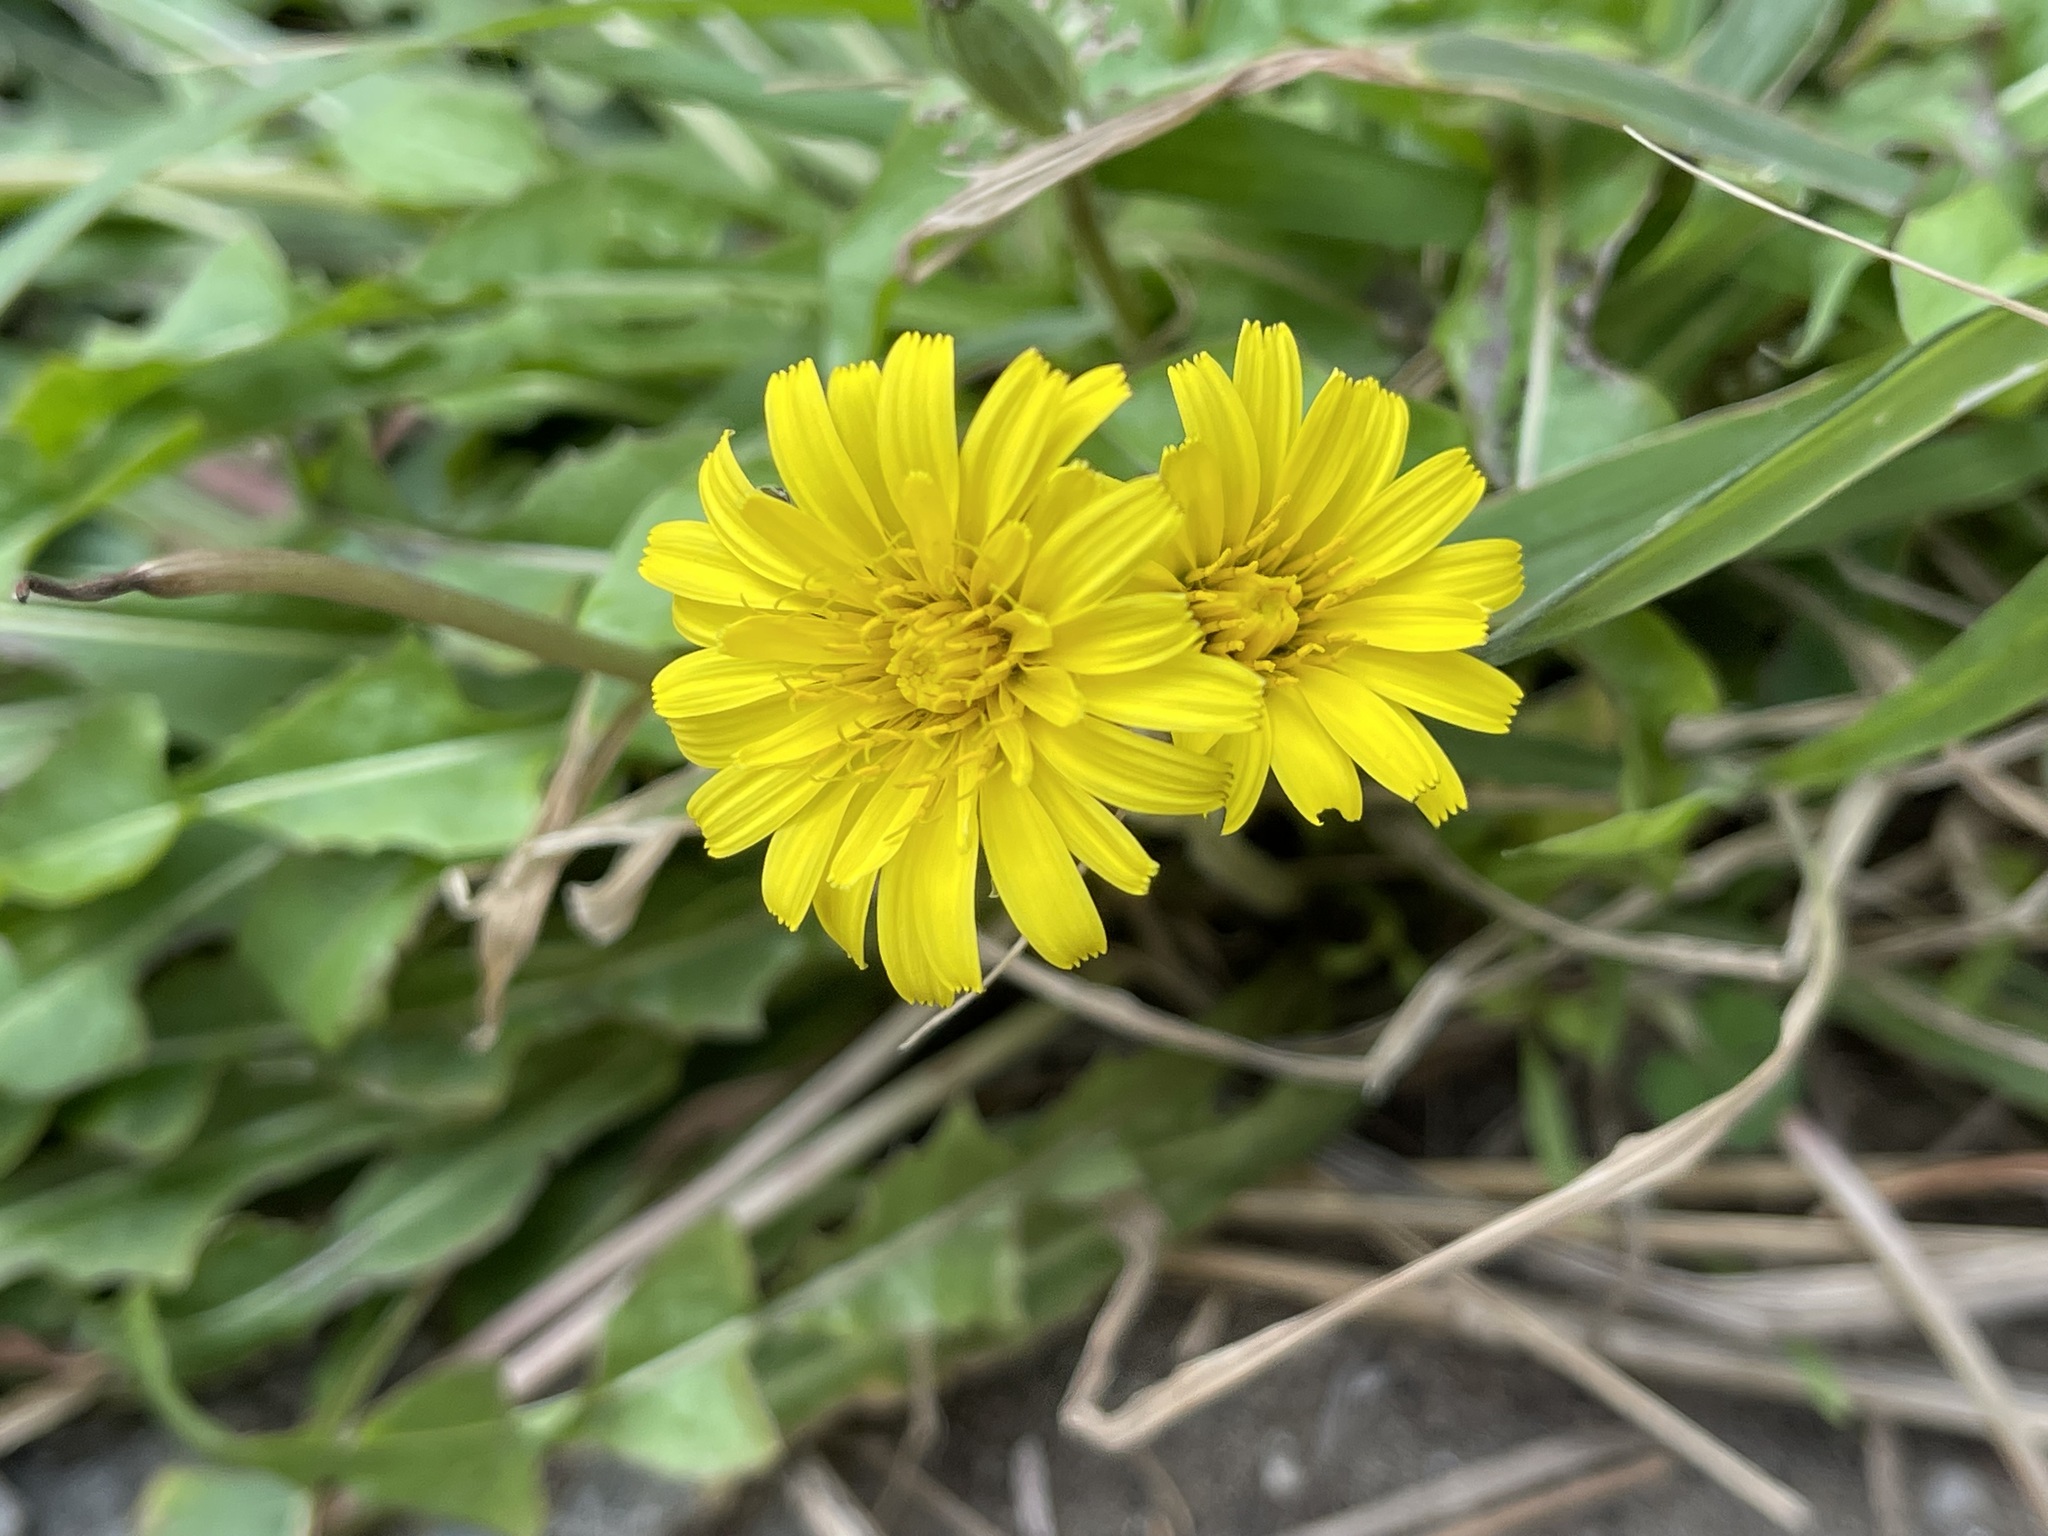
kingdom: Plantae
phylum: Tracheophyta
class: Magnoliopsida
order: Asterales
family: Asteraceae
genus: Taraxacum
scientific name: Taraxacum formosanum
